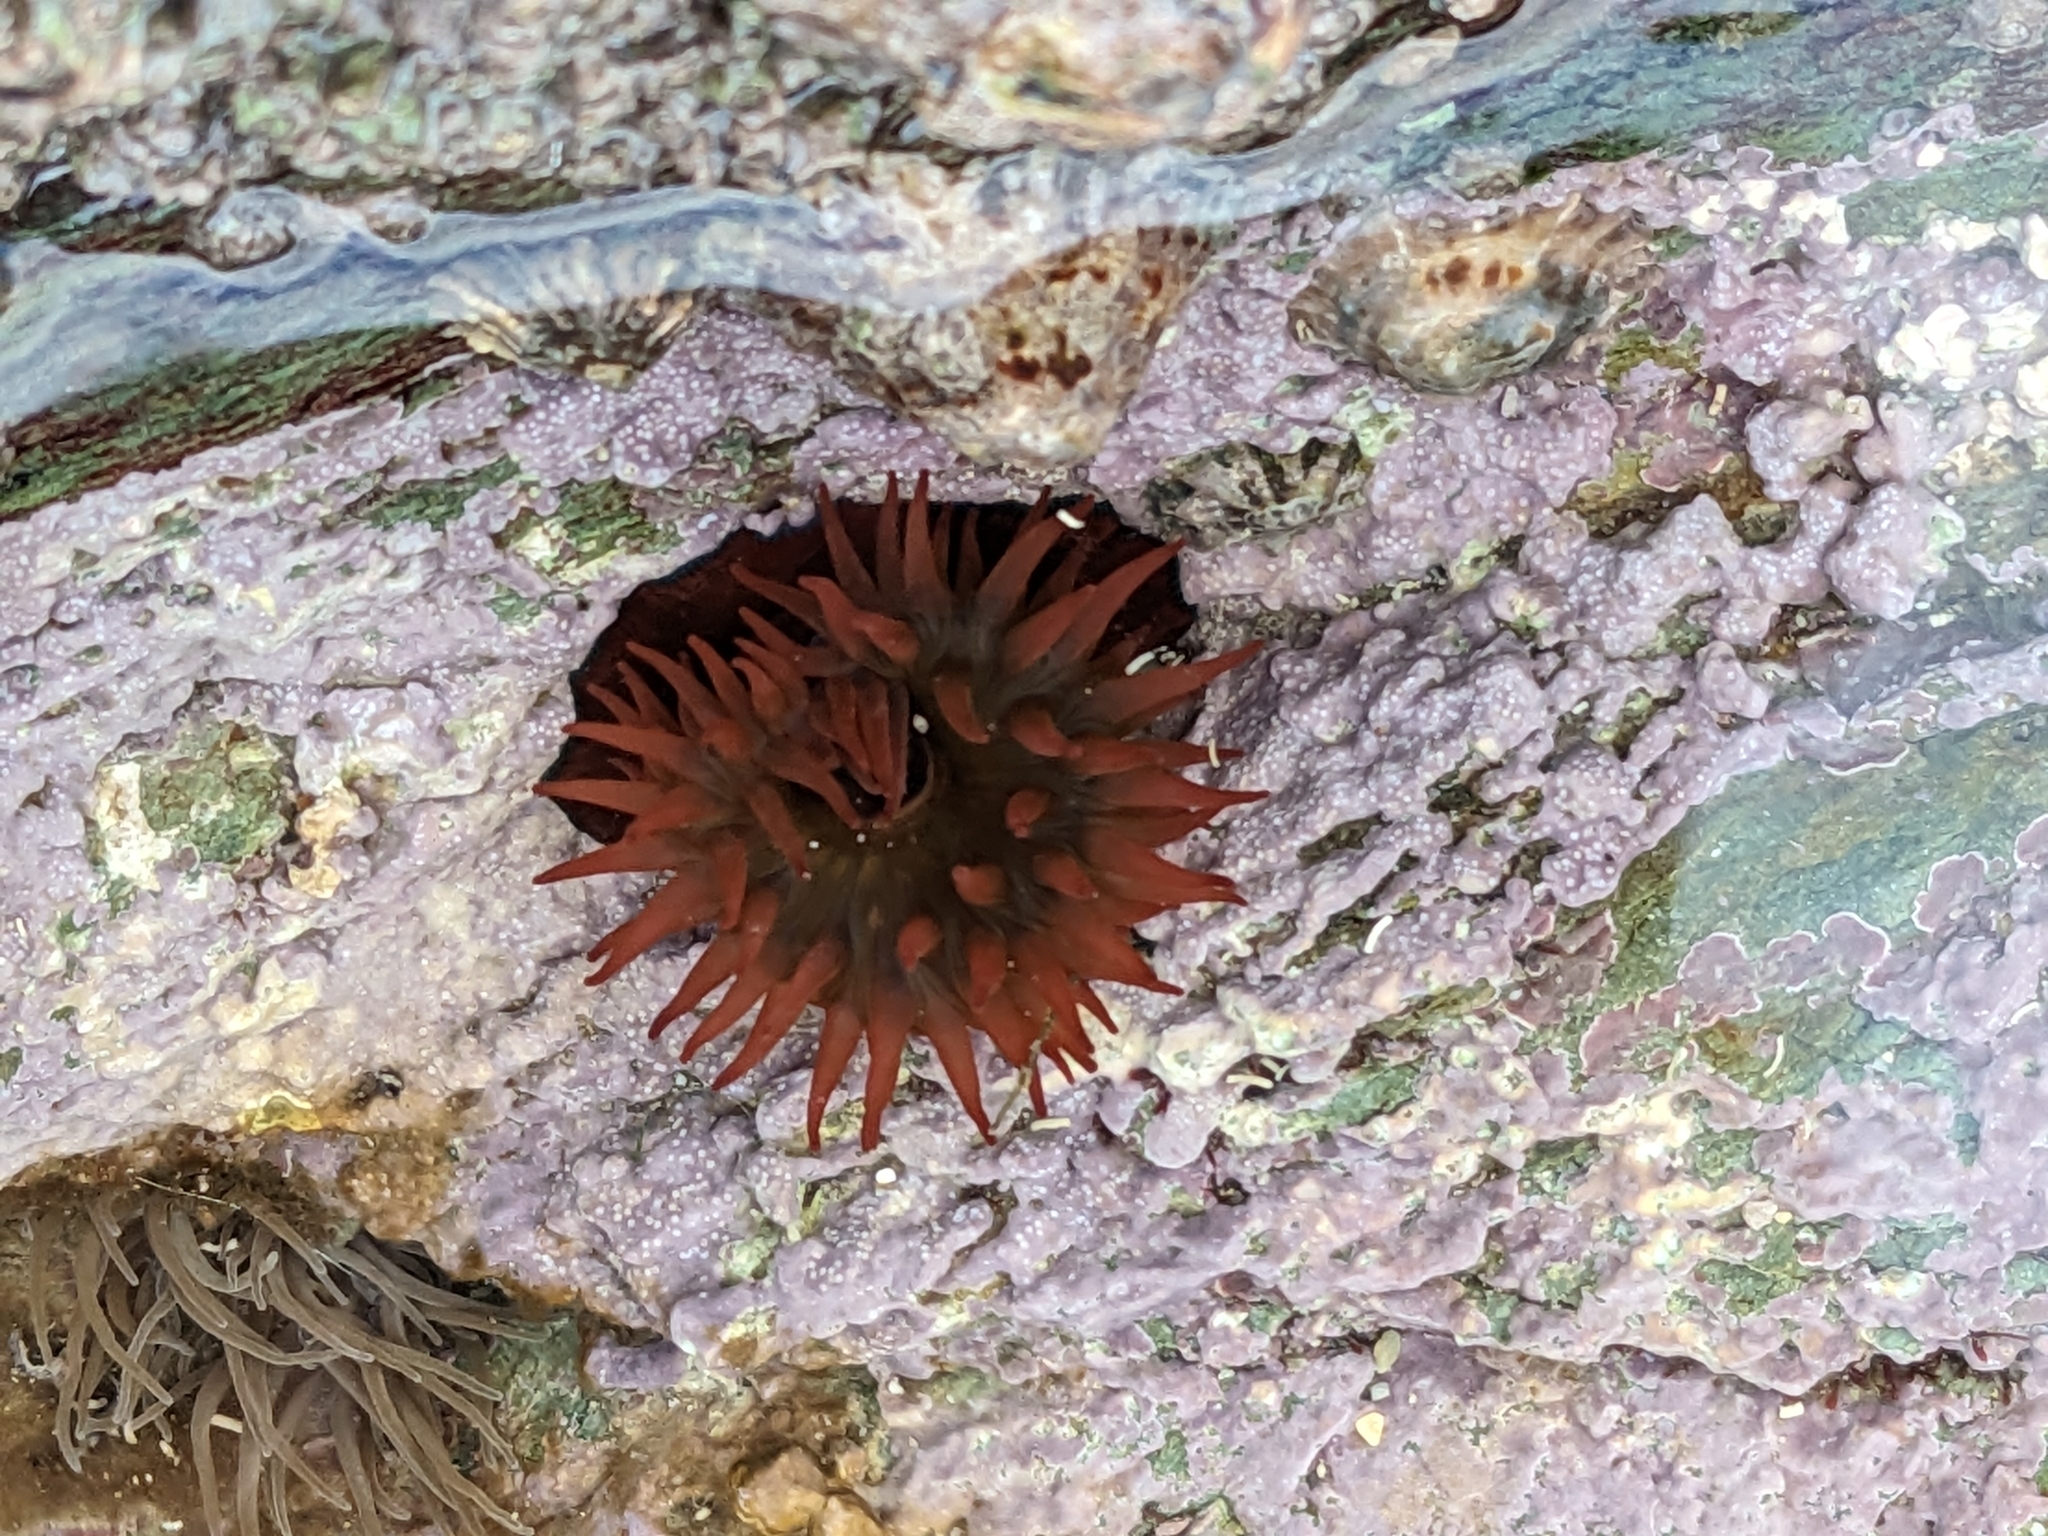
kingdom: Animalia
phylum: Cnidaria
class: Anthozoa
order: Actiniaria
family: Actiniidae
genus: Actinia
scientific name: Actinia equina
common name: Beadlet anemone
